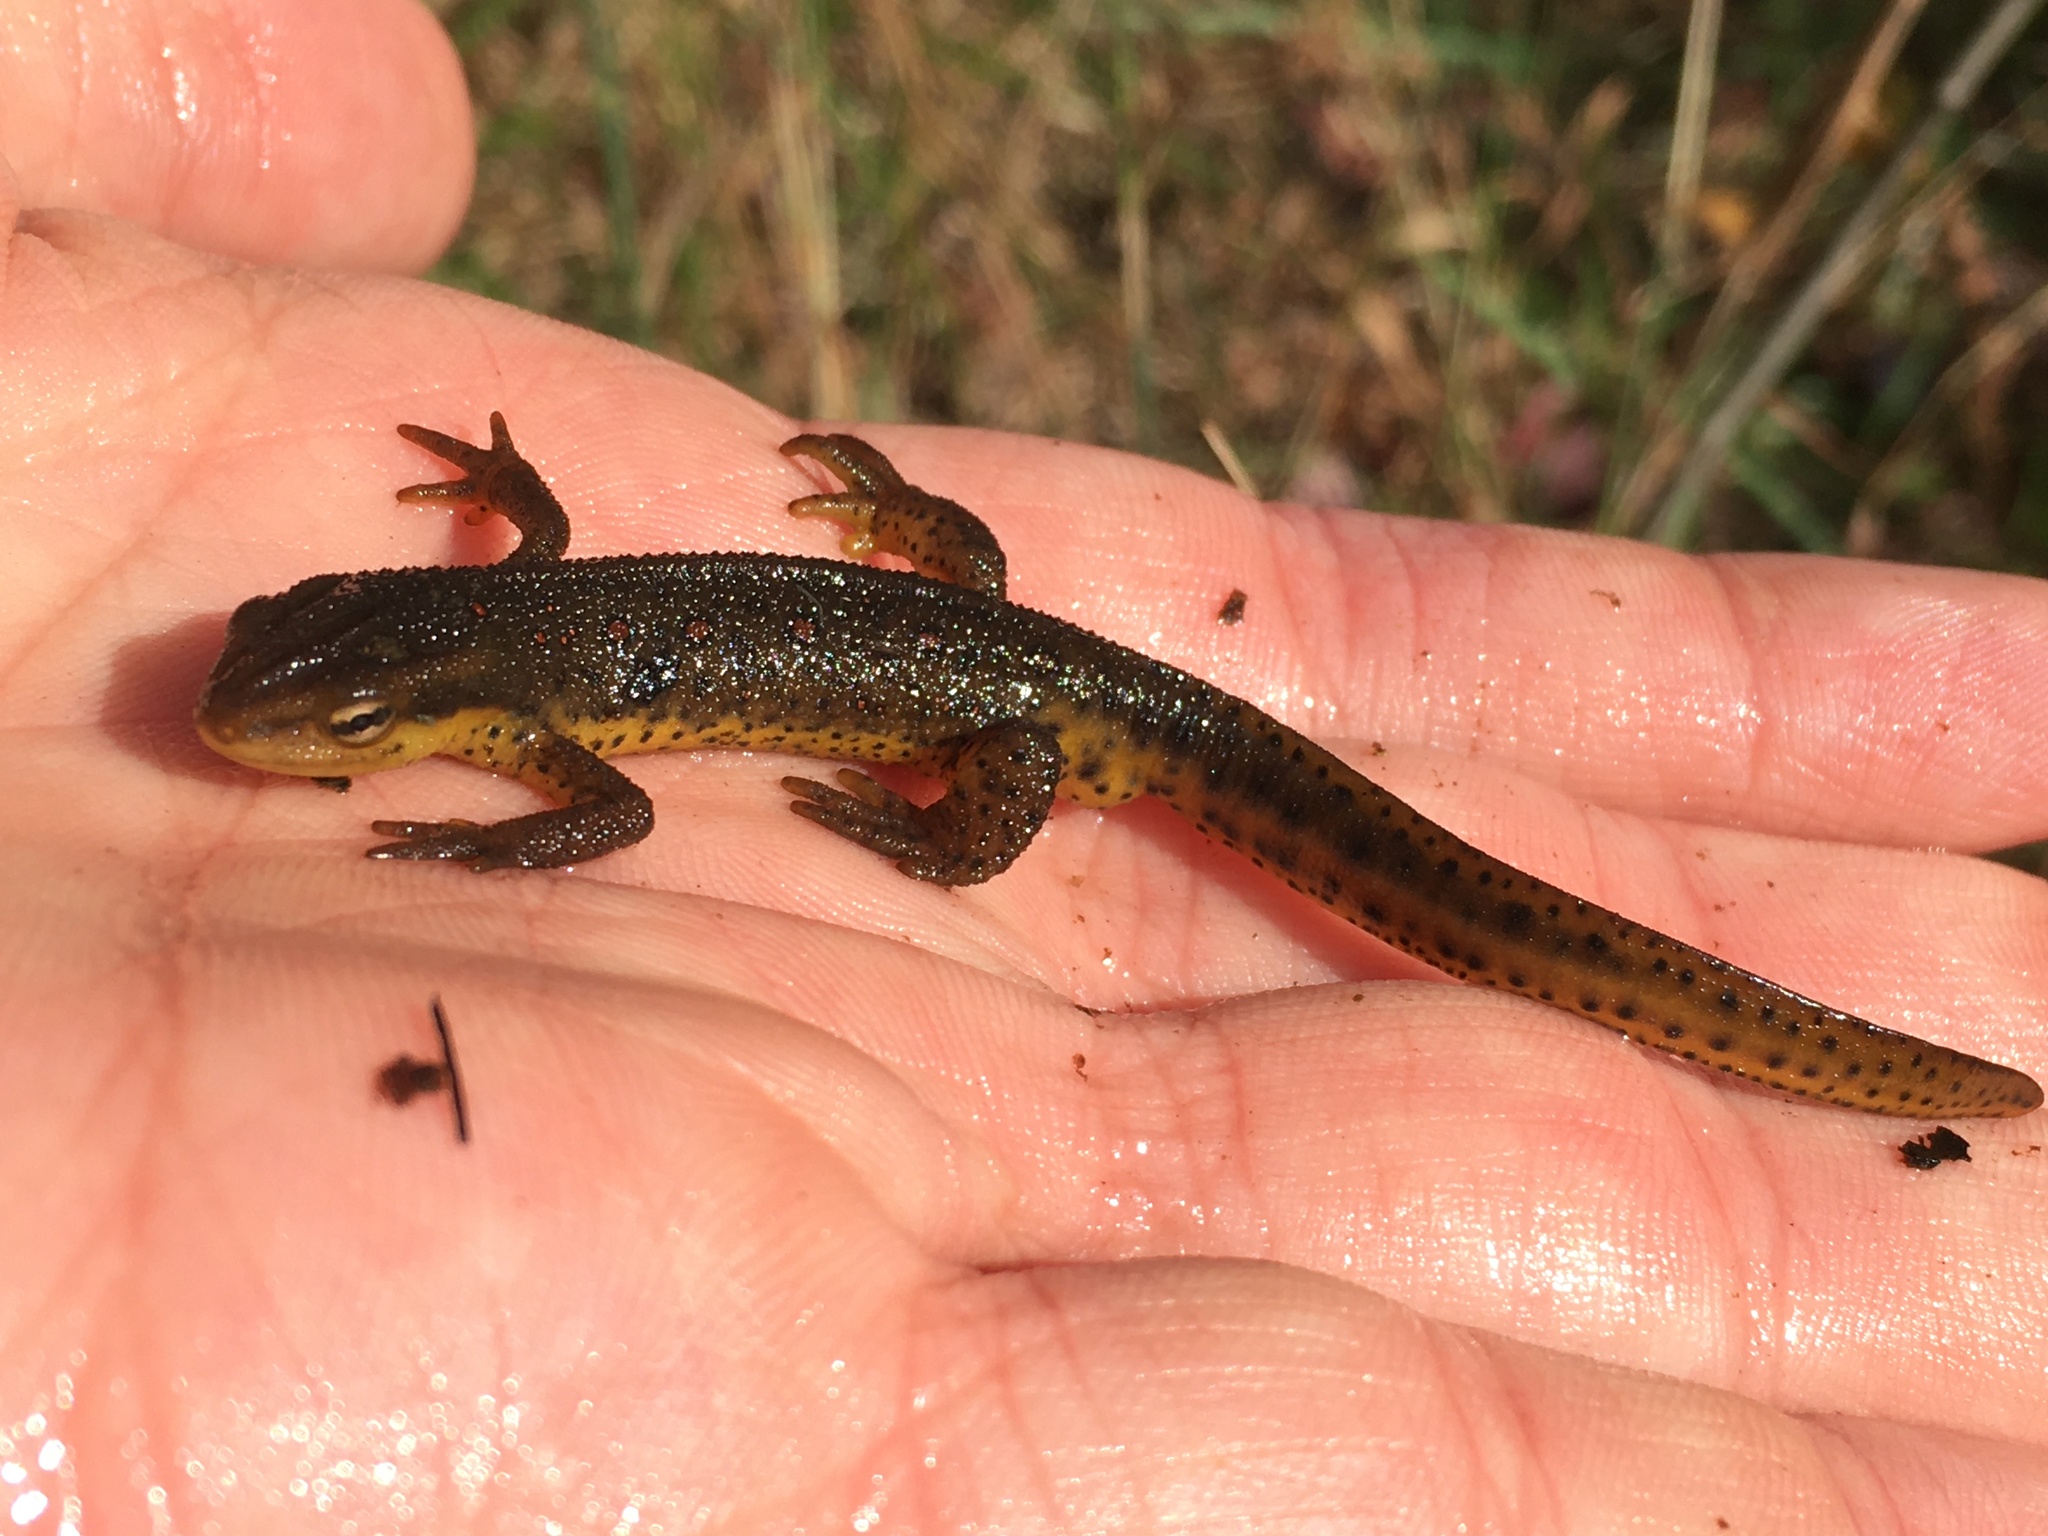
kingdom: Animalia
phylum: Chordata
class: Amphibia
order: Caudata
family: Salamandridae
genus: Notophthalmus
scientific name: Notophthalmus viridescens
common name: Eastern newt
